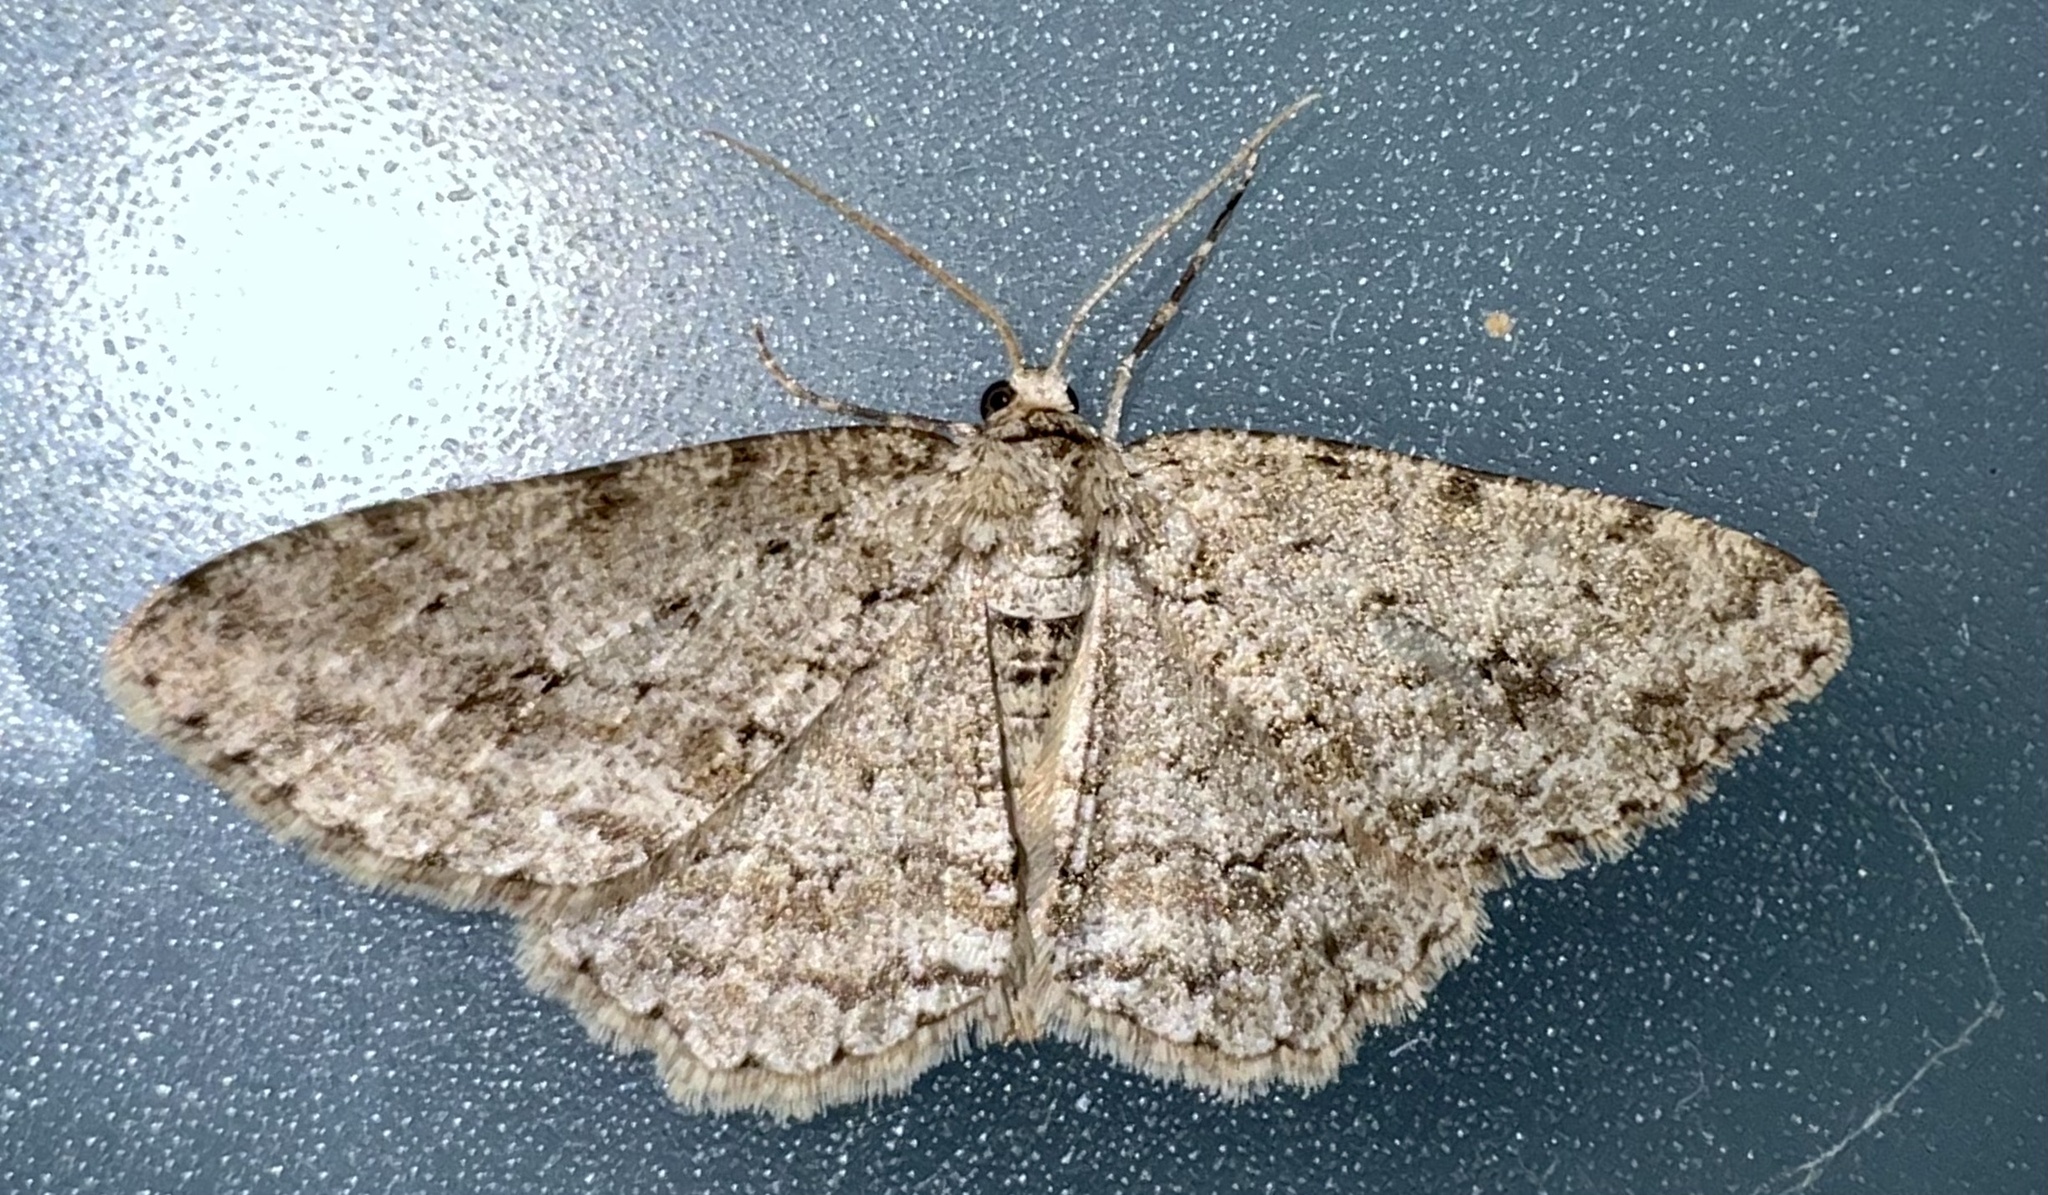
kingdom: Animalia
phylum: Arthropoda
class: Insecta
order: Lepidoptera
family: Geometridae
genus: Ectropis
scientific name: Ectropis crepuscularia
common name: Engrailed
